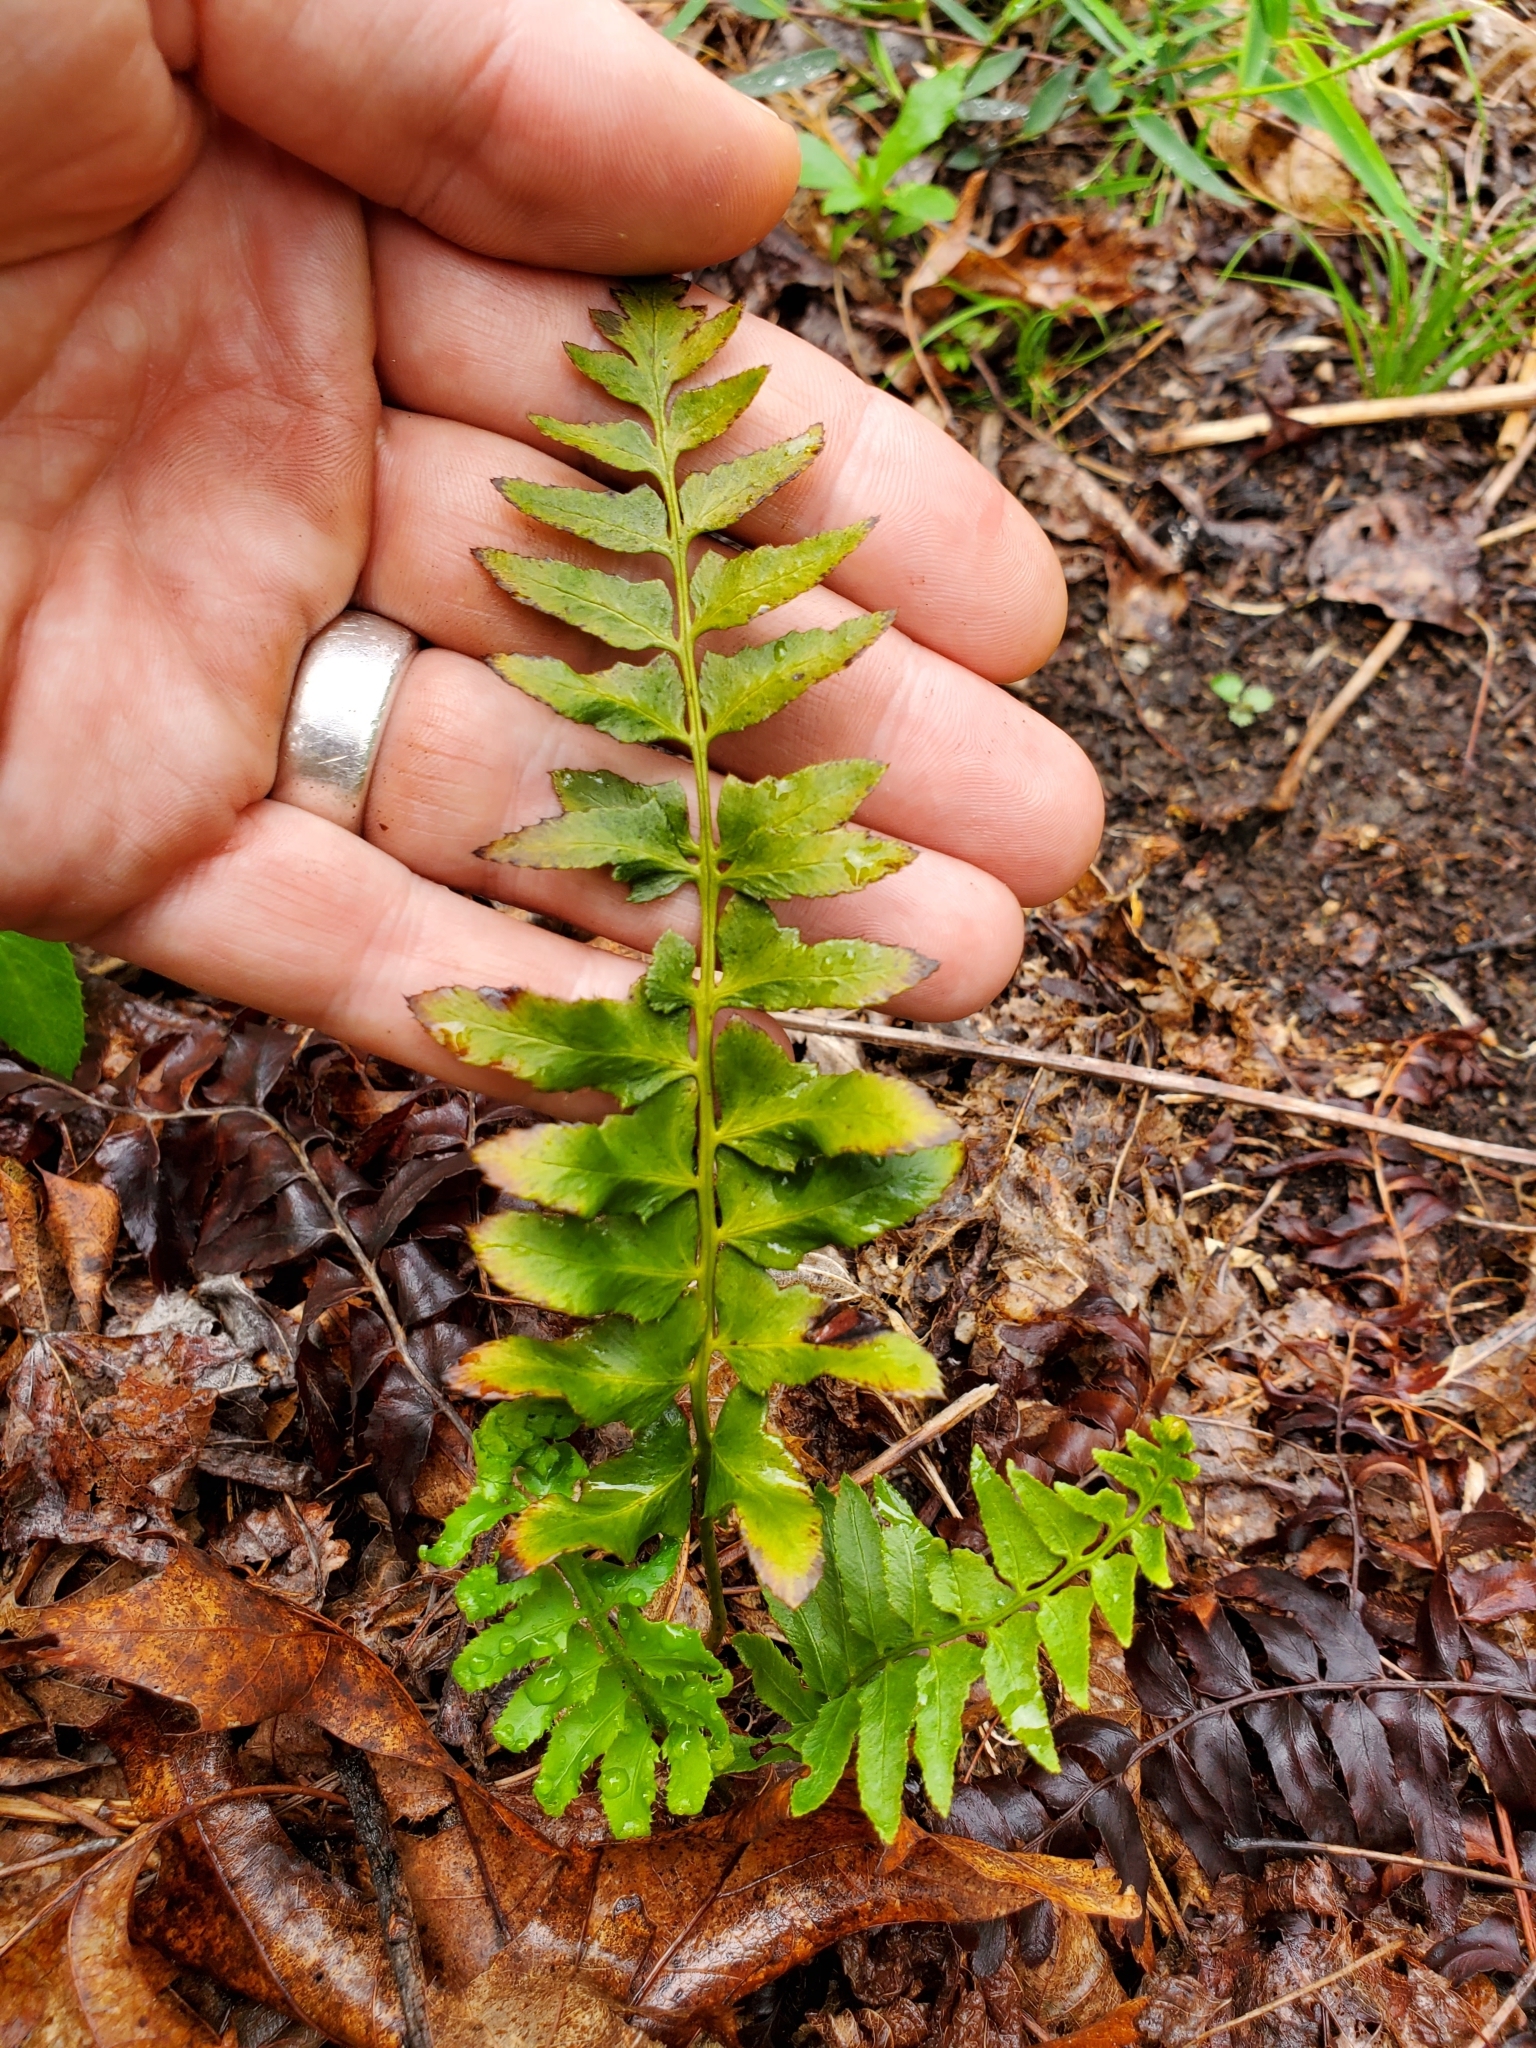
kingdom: Plantae
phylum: Tracheophyta
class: Polypodiopsida
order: Polypodiales
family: Dryopteridaceae
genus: Polystichum
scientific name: Polystichum acrostichoides
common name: Christmas fern
